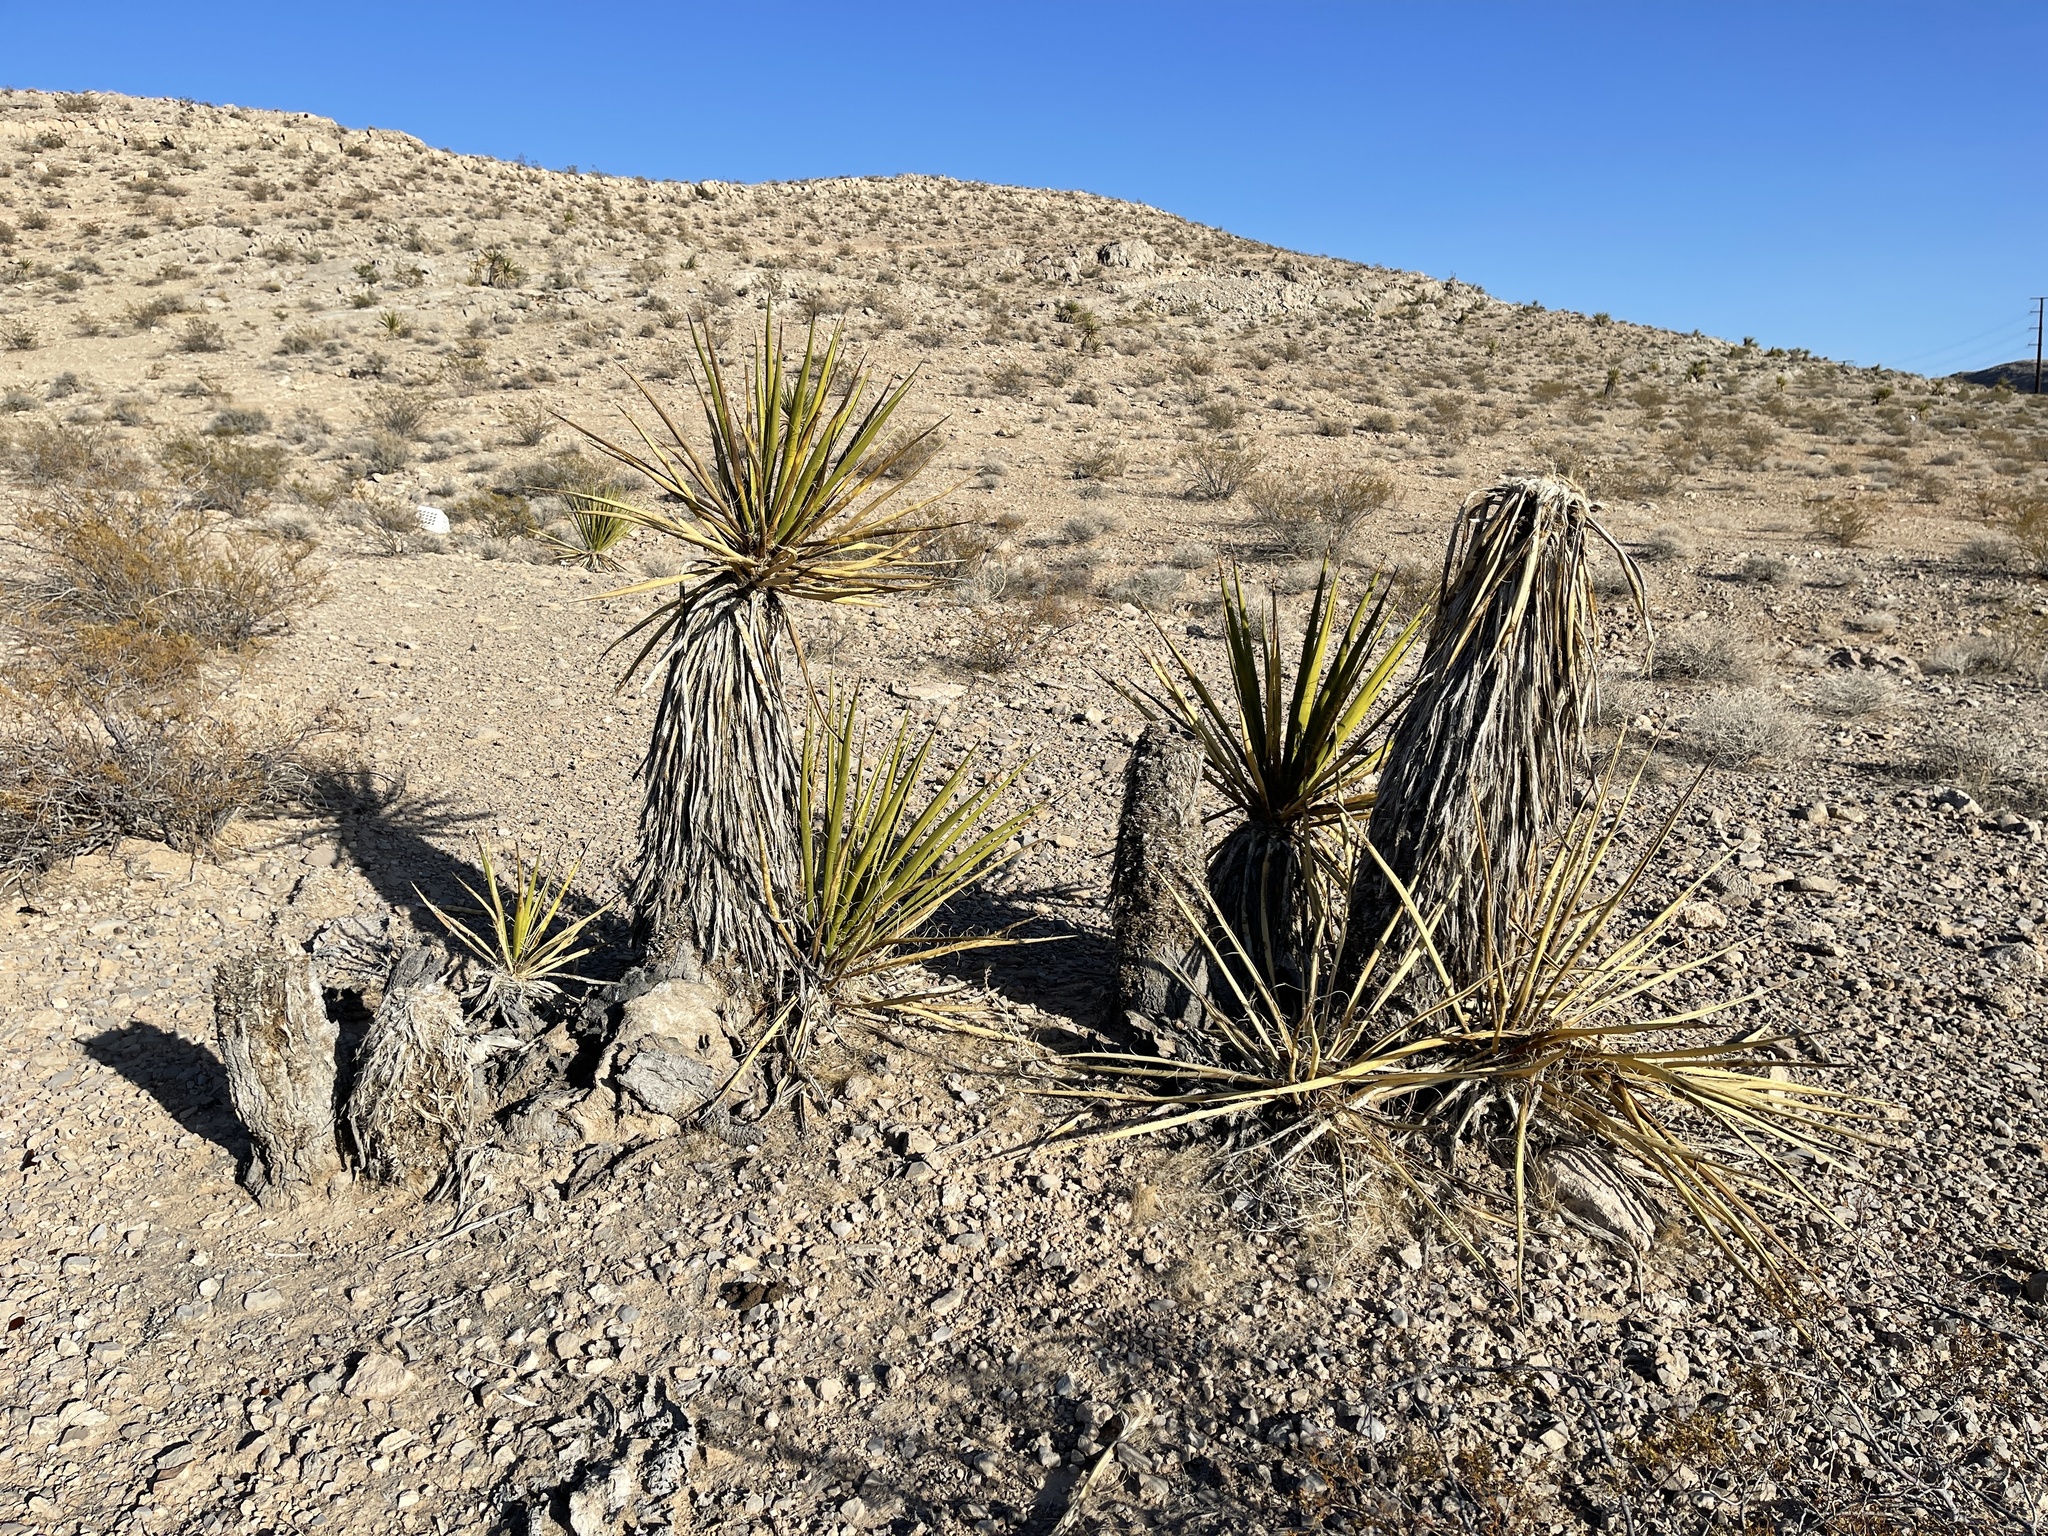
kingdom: Plantae
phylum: Tracheophyta
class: Liliopsida
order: Asparagales
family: Asparagaceae
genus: Yucca
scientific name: Yucca schidigera
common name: Mojave yucca
